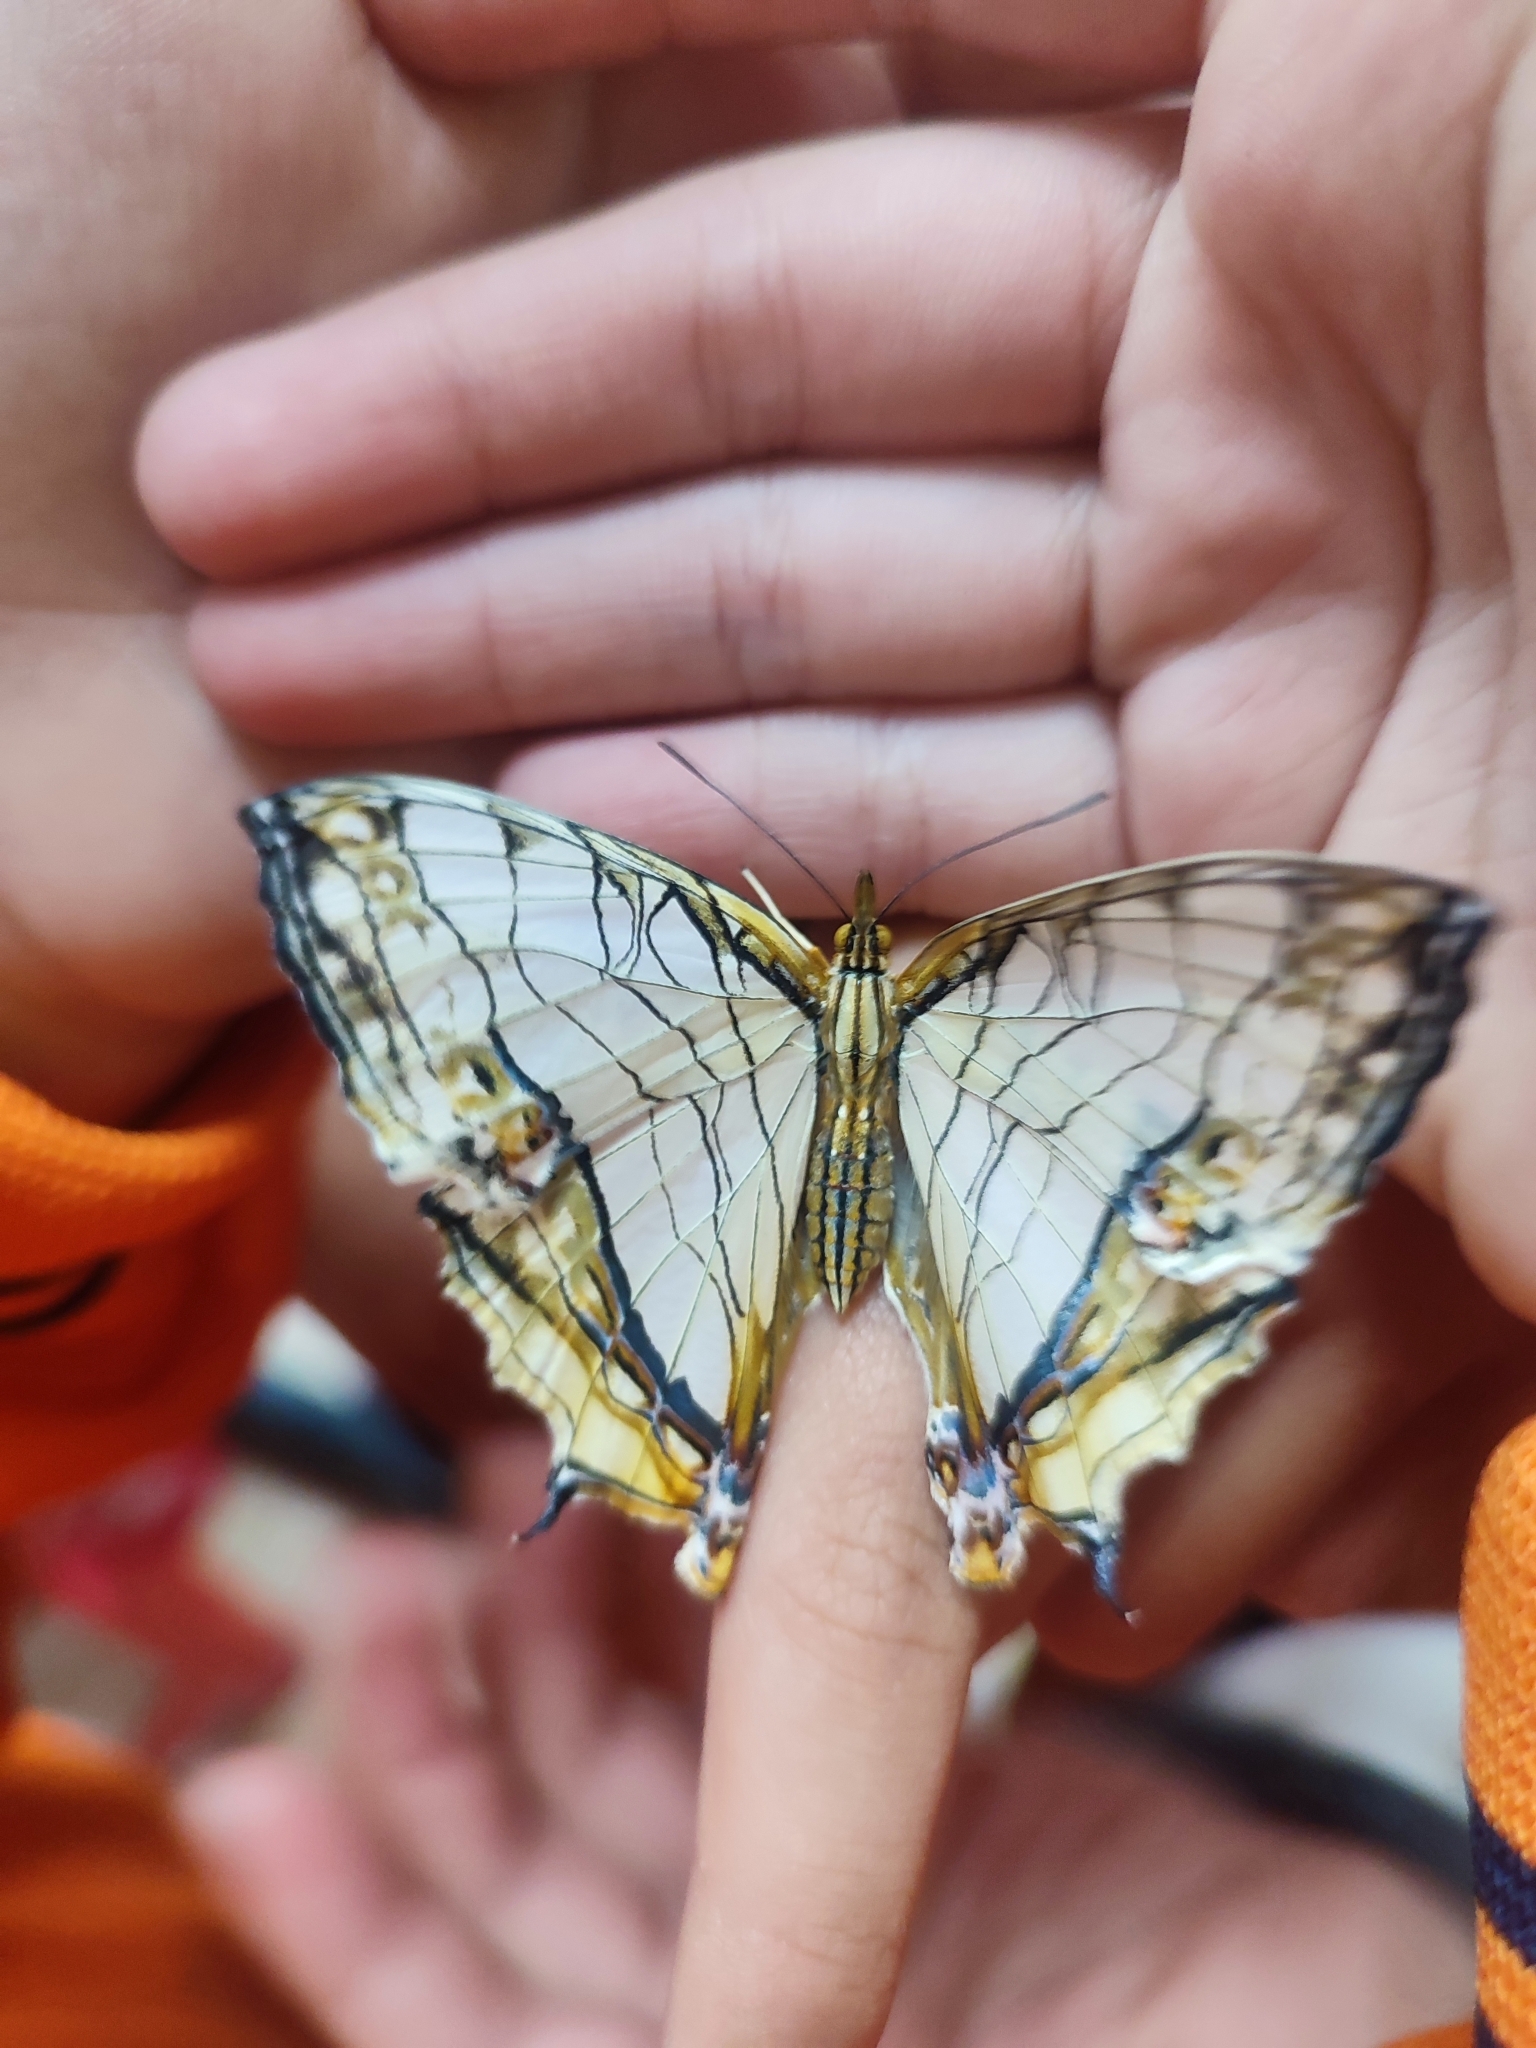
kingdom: Animalia
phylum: Arthropoda
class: Insecta
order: Lepidoptera
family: Nymphalidae
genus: Cyrestis
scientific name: Cyrestis thyodamas
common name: Common mapwing
